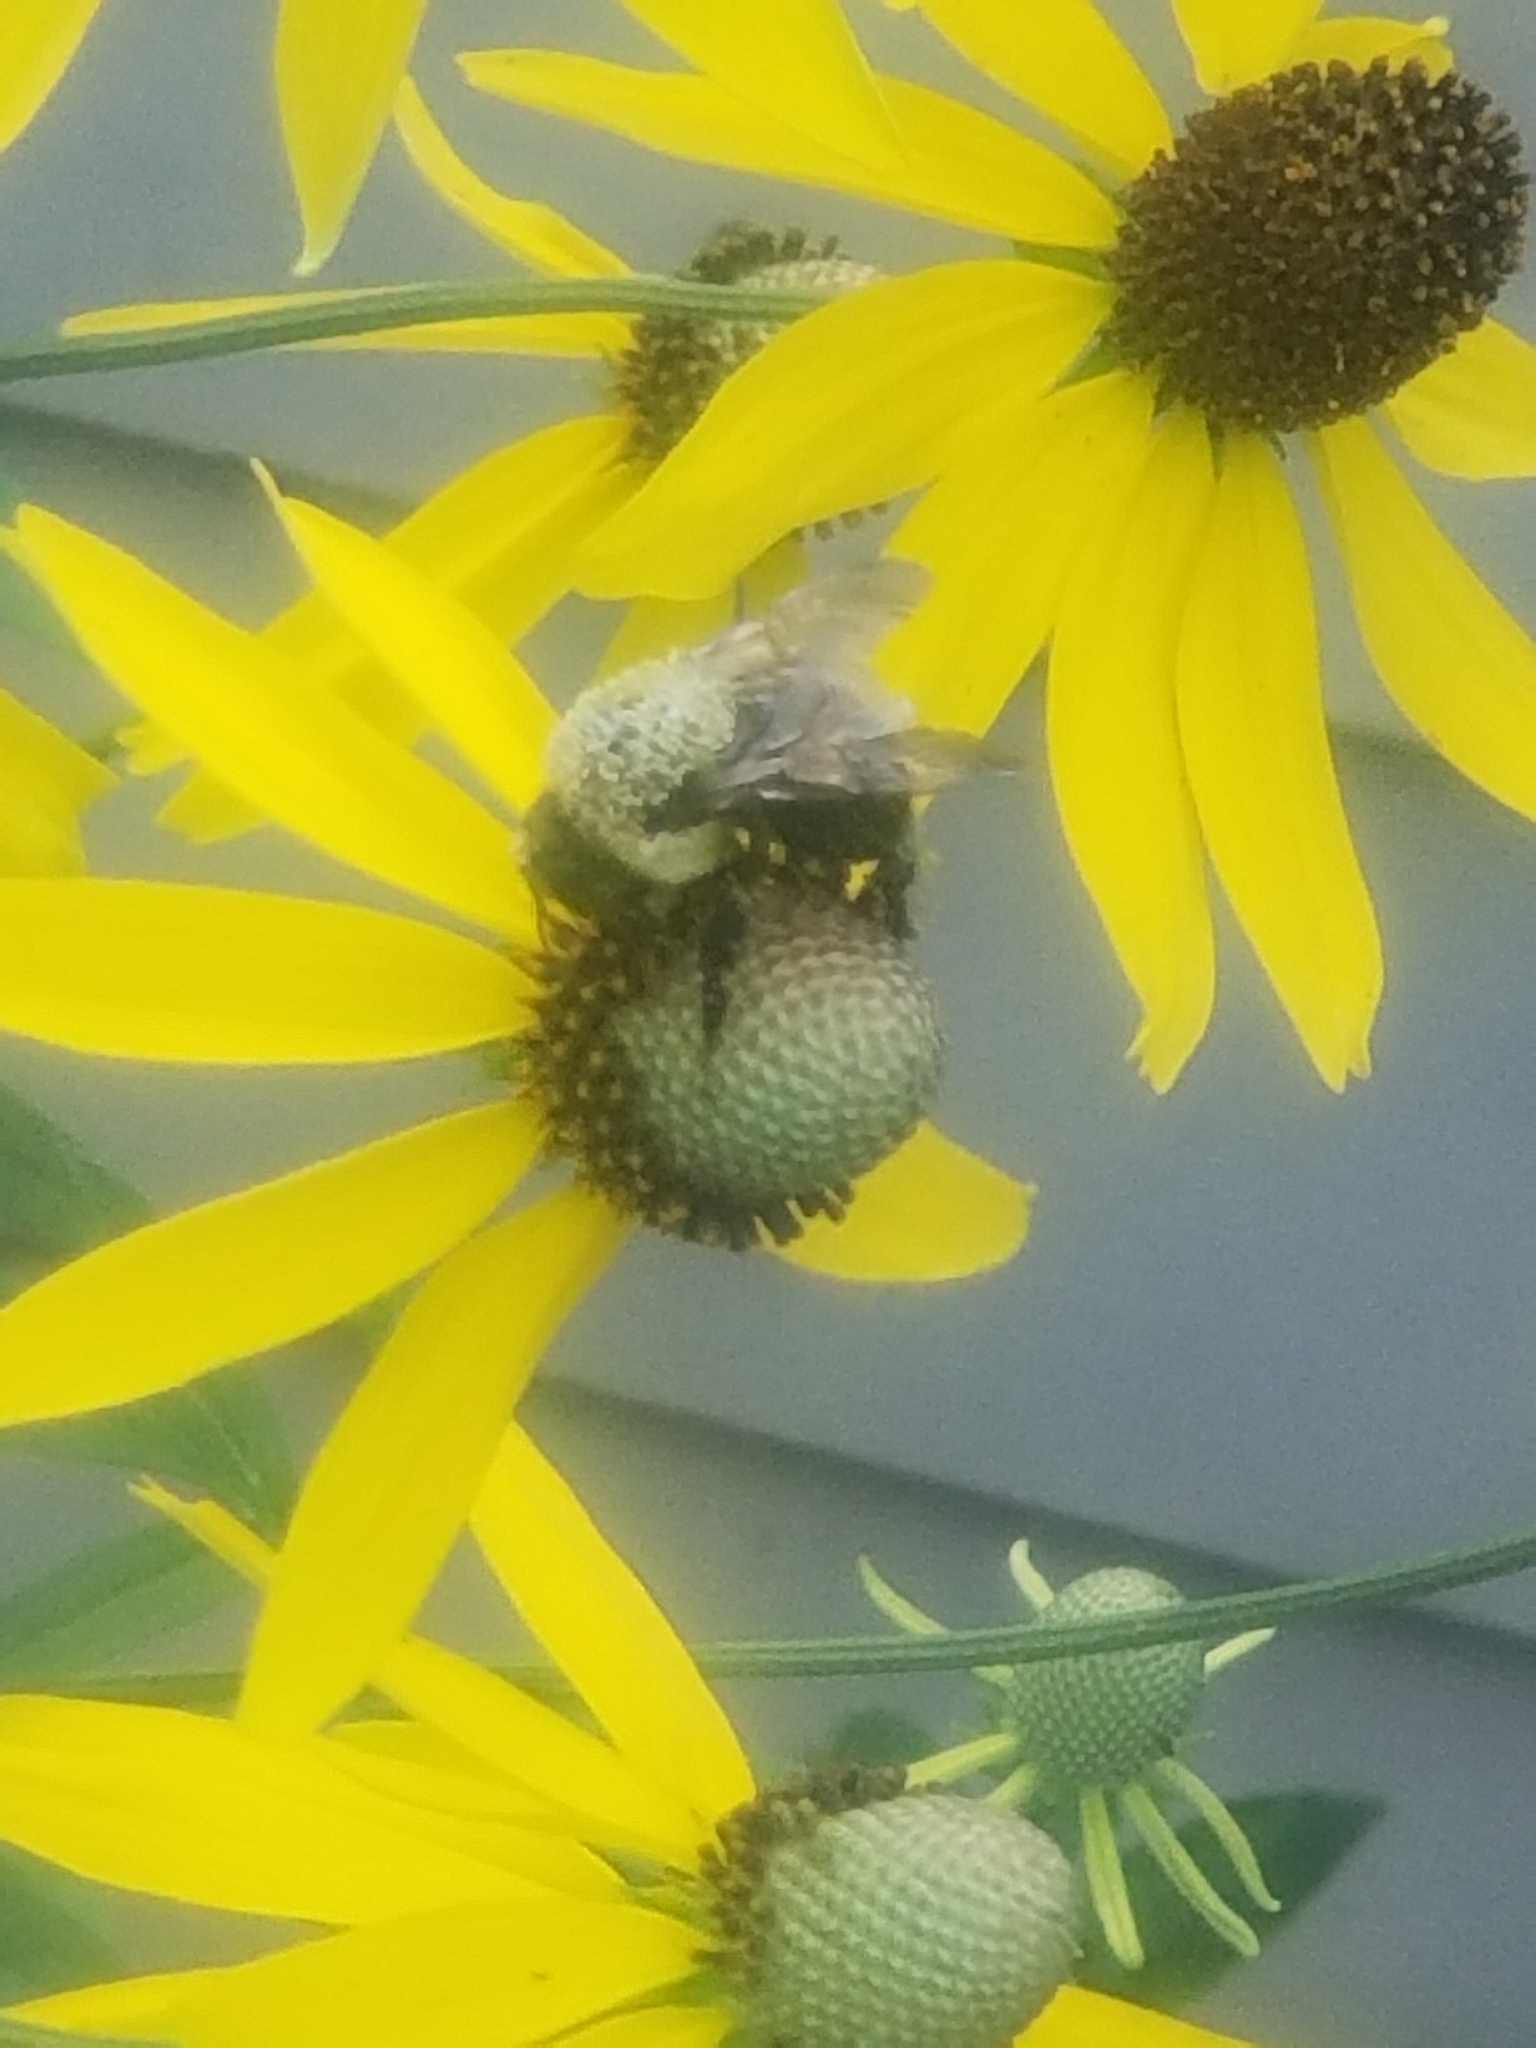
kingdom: Animalia
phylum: Arthropoda
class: Insecta
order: Hymenoptera
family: Apidae
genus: Bombus
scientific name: Bombus griseocollis
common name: Brown-belted bumble bee
